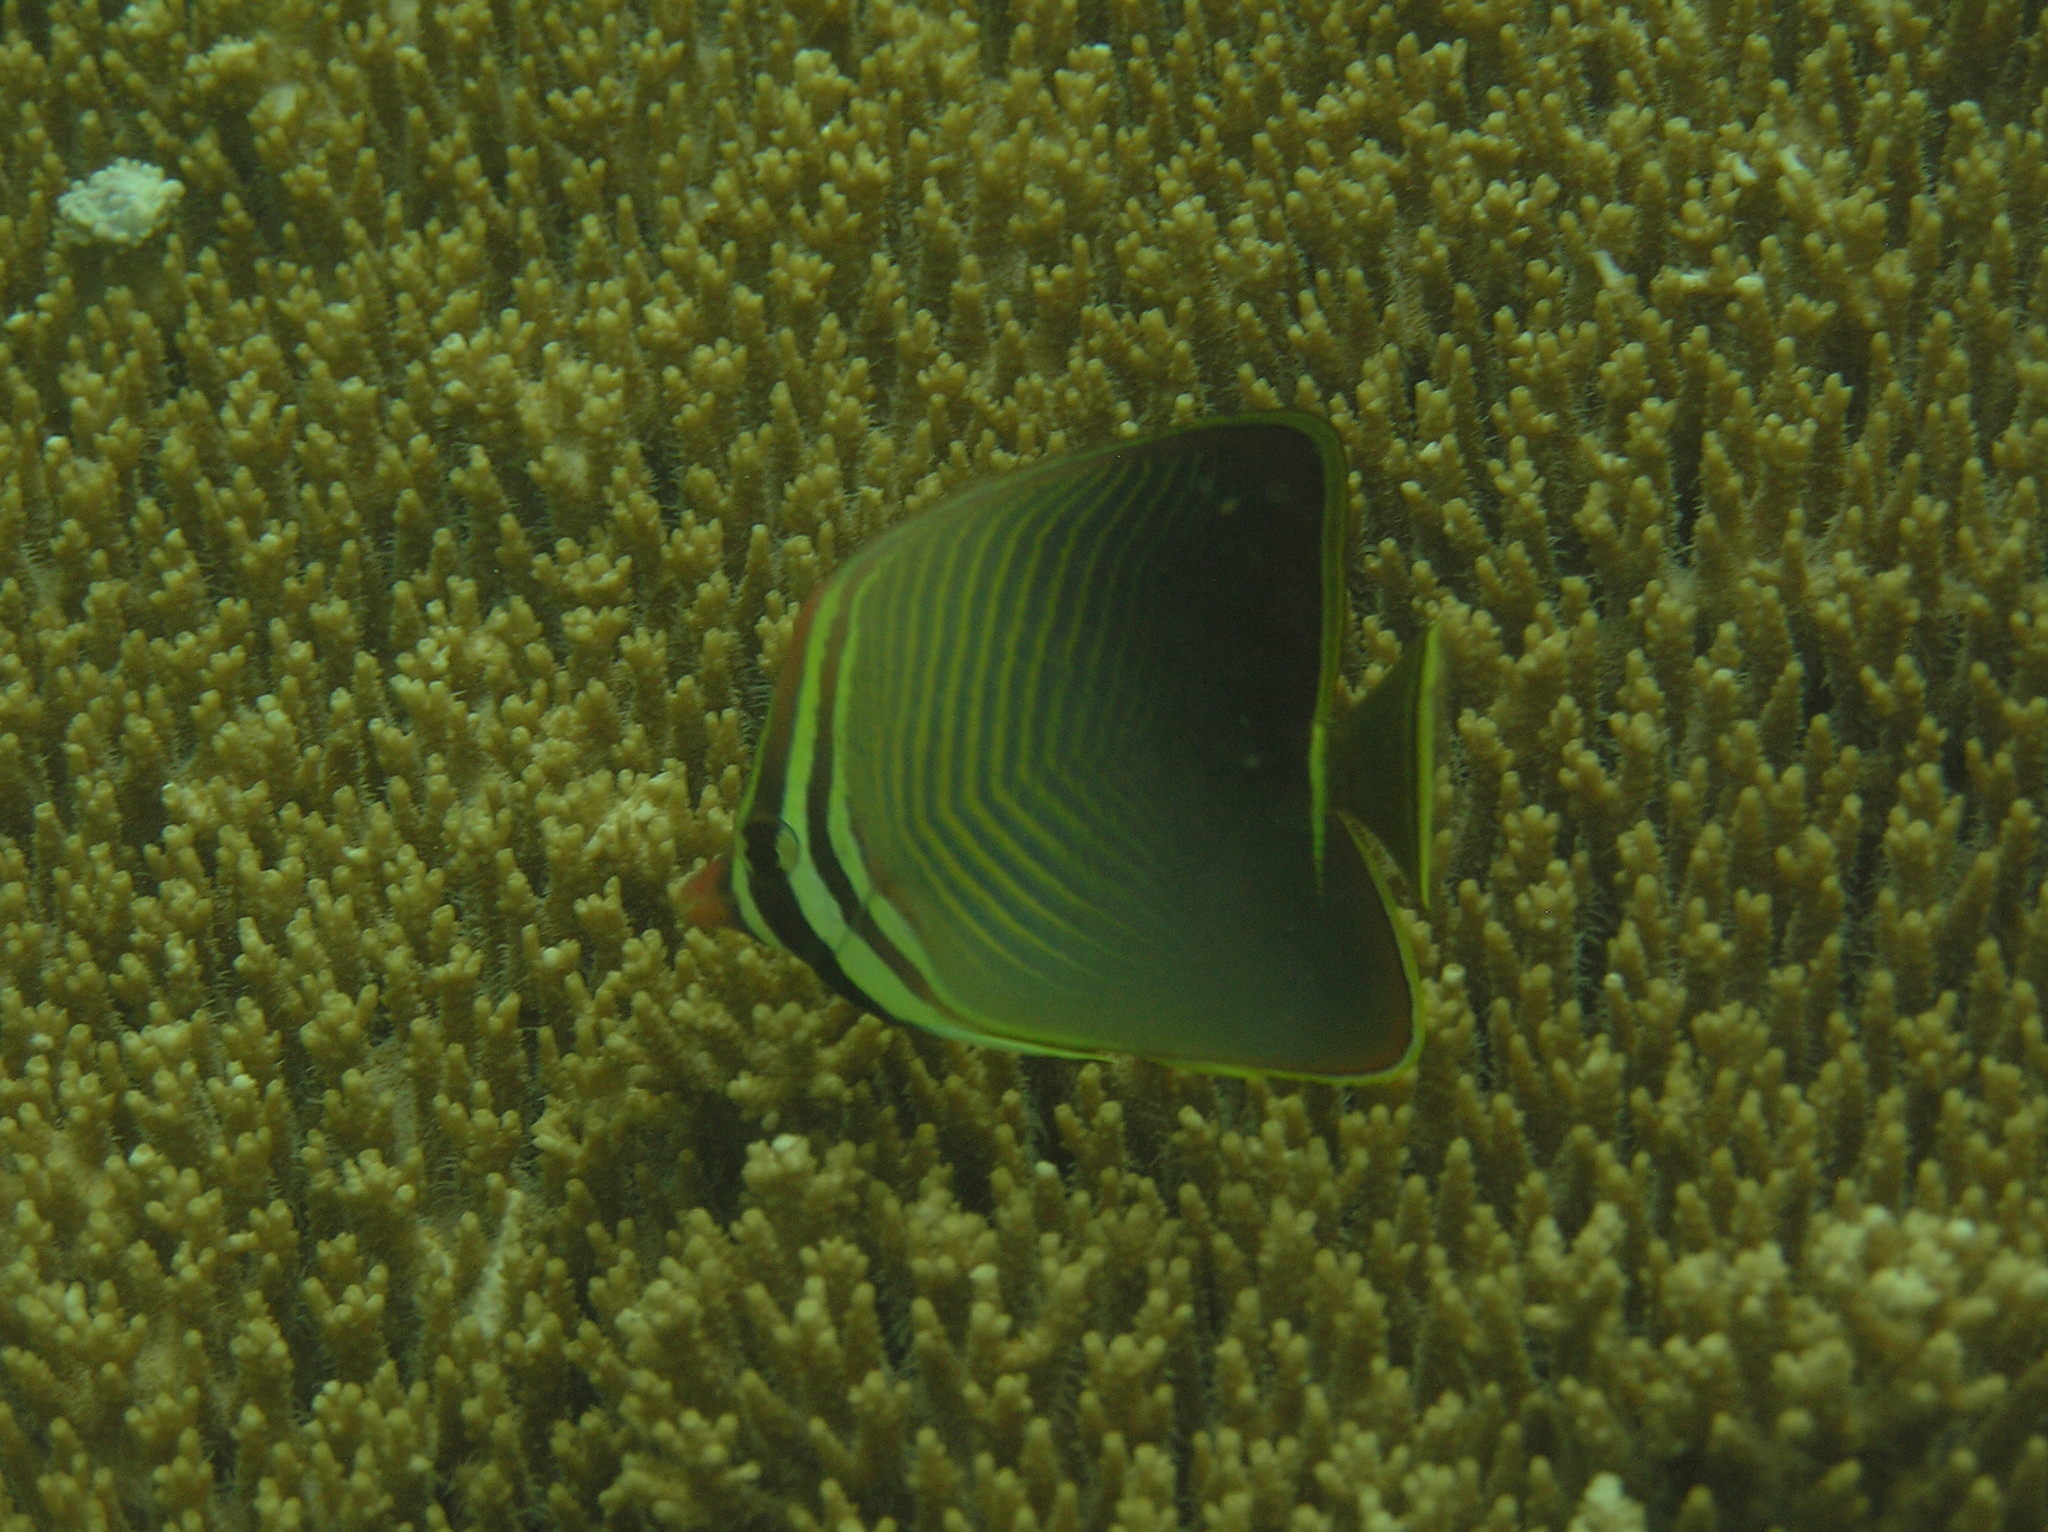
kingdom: Animalia
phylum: Chordata
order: Perciformes
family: Chaetodontidae
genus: Chaetodon
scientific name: Chaetodon baronessa
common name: Triangular butterflyfish
